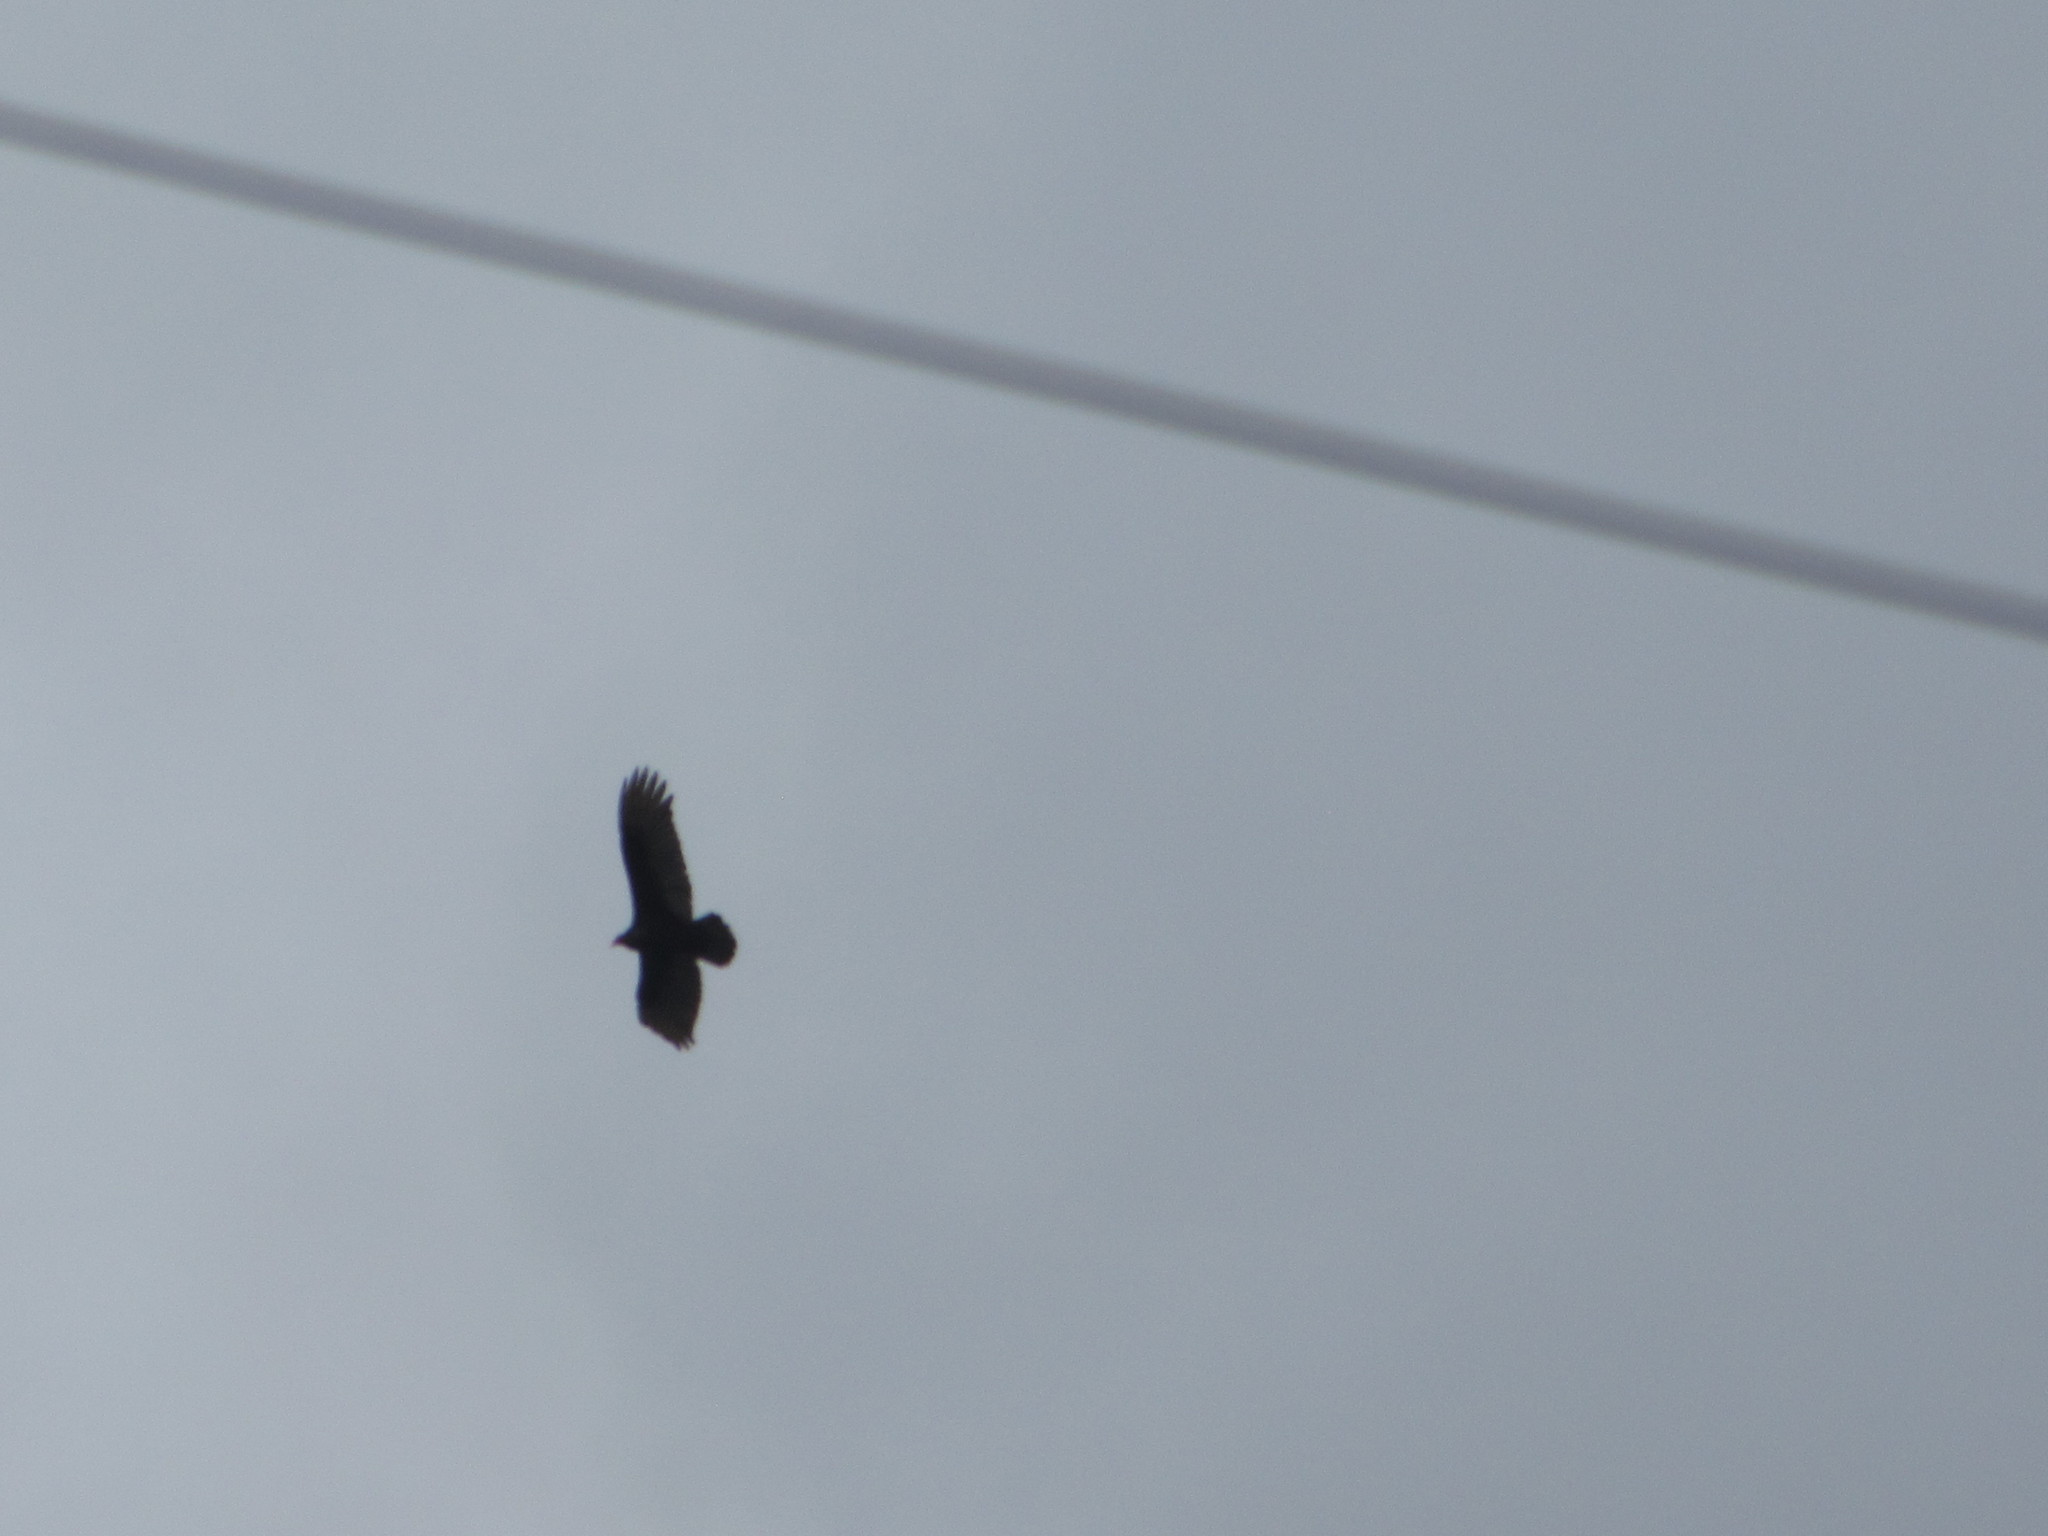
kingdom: Animalia
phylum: Chordata
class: Aves
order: Accipitriformes
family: Cathartidae
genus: Cathartes
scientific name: Cathartes aura
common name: Turkey vulture
